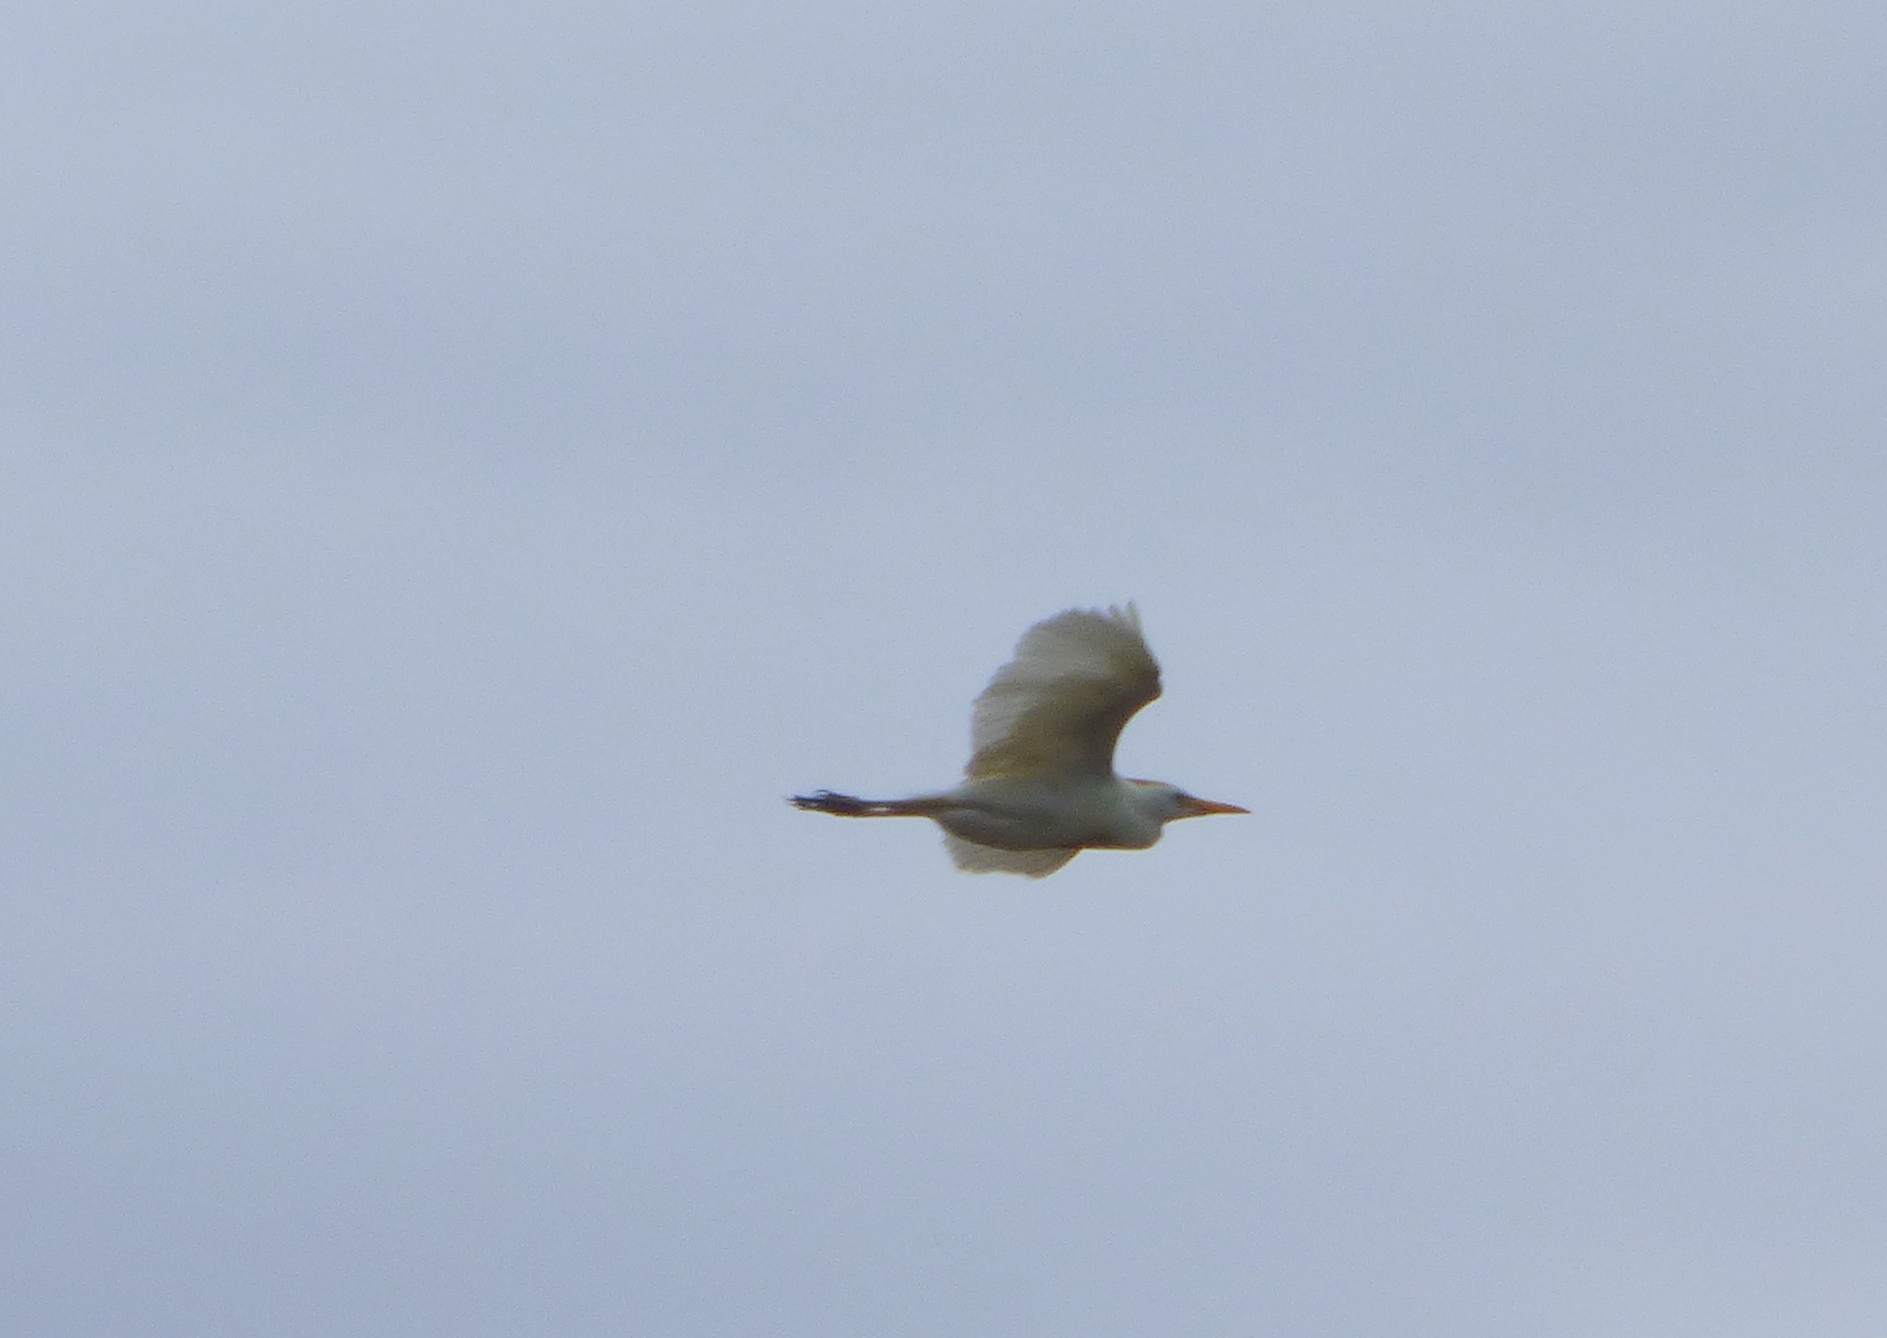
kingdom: Animalia
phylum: Chordata
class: Aves
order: Pelecaniformes
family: Ardeidae
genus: Bubulcus
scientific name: Bubulcus ibis
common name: Cattle egret
